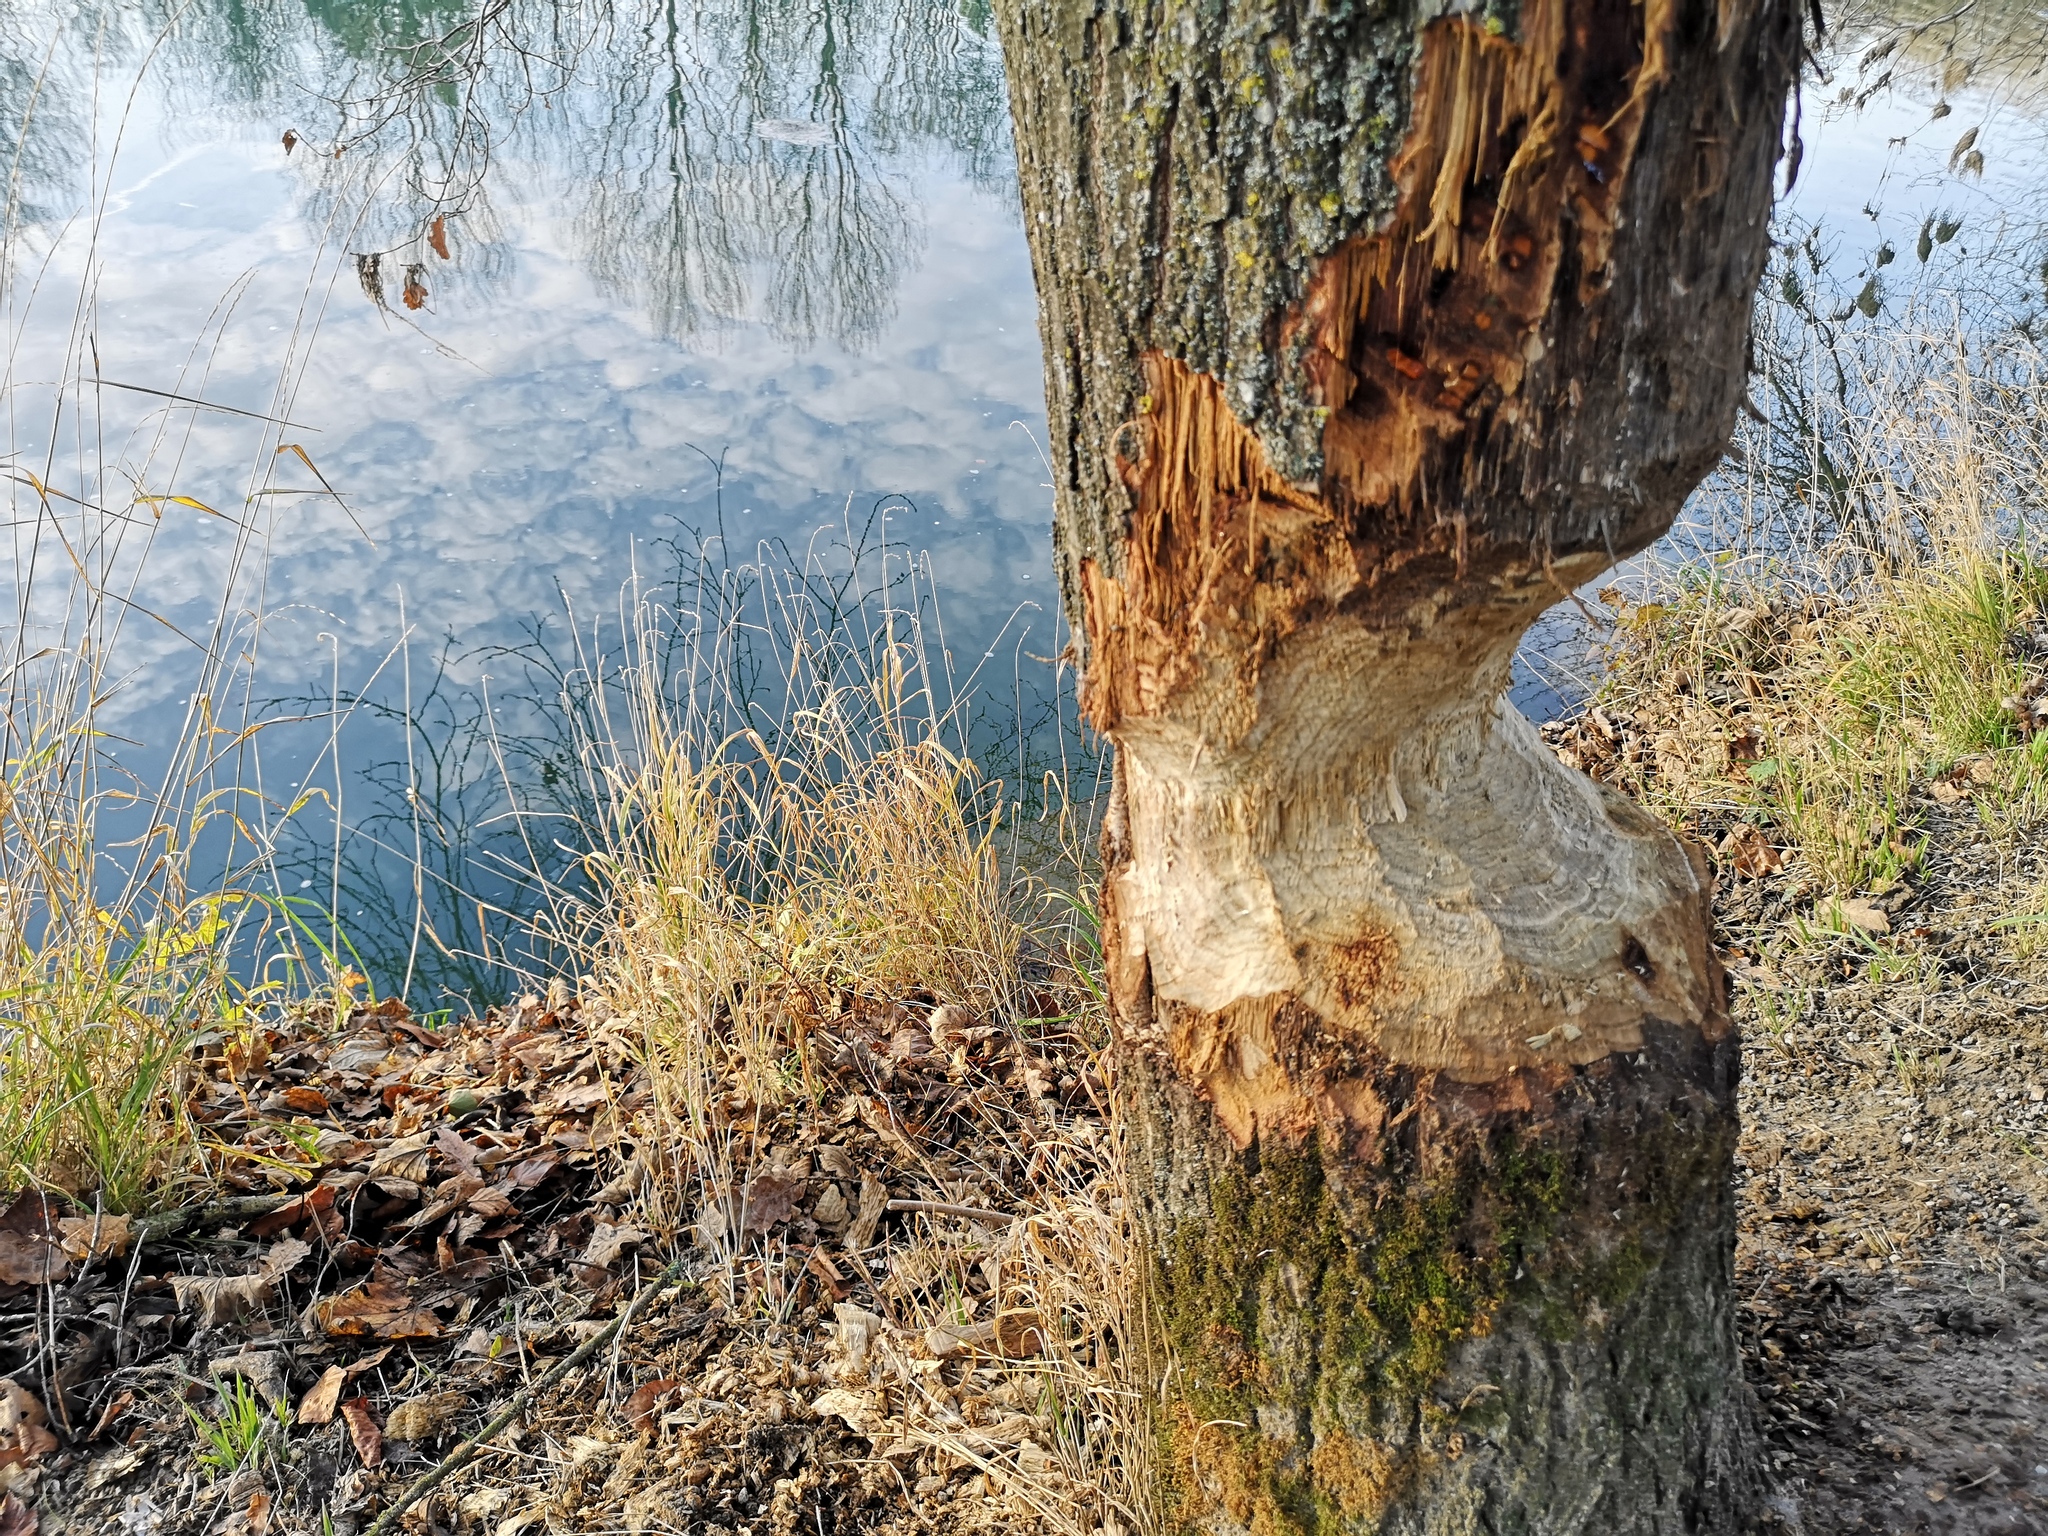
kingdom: Animalia
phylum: Chordata
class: Mammalia
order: Rodentia
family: Castoridae
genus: Castor
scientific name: Castor fiber
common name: Eurasian beaver
